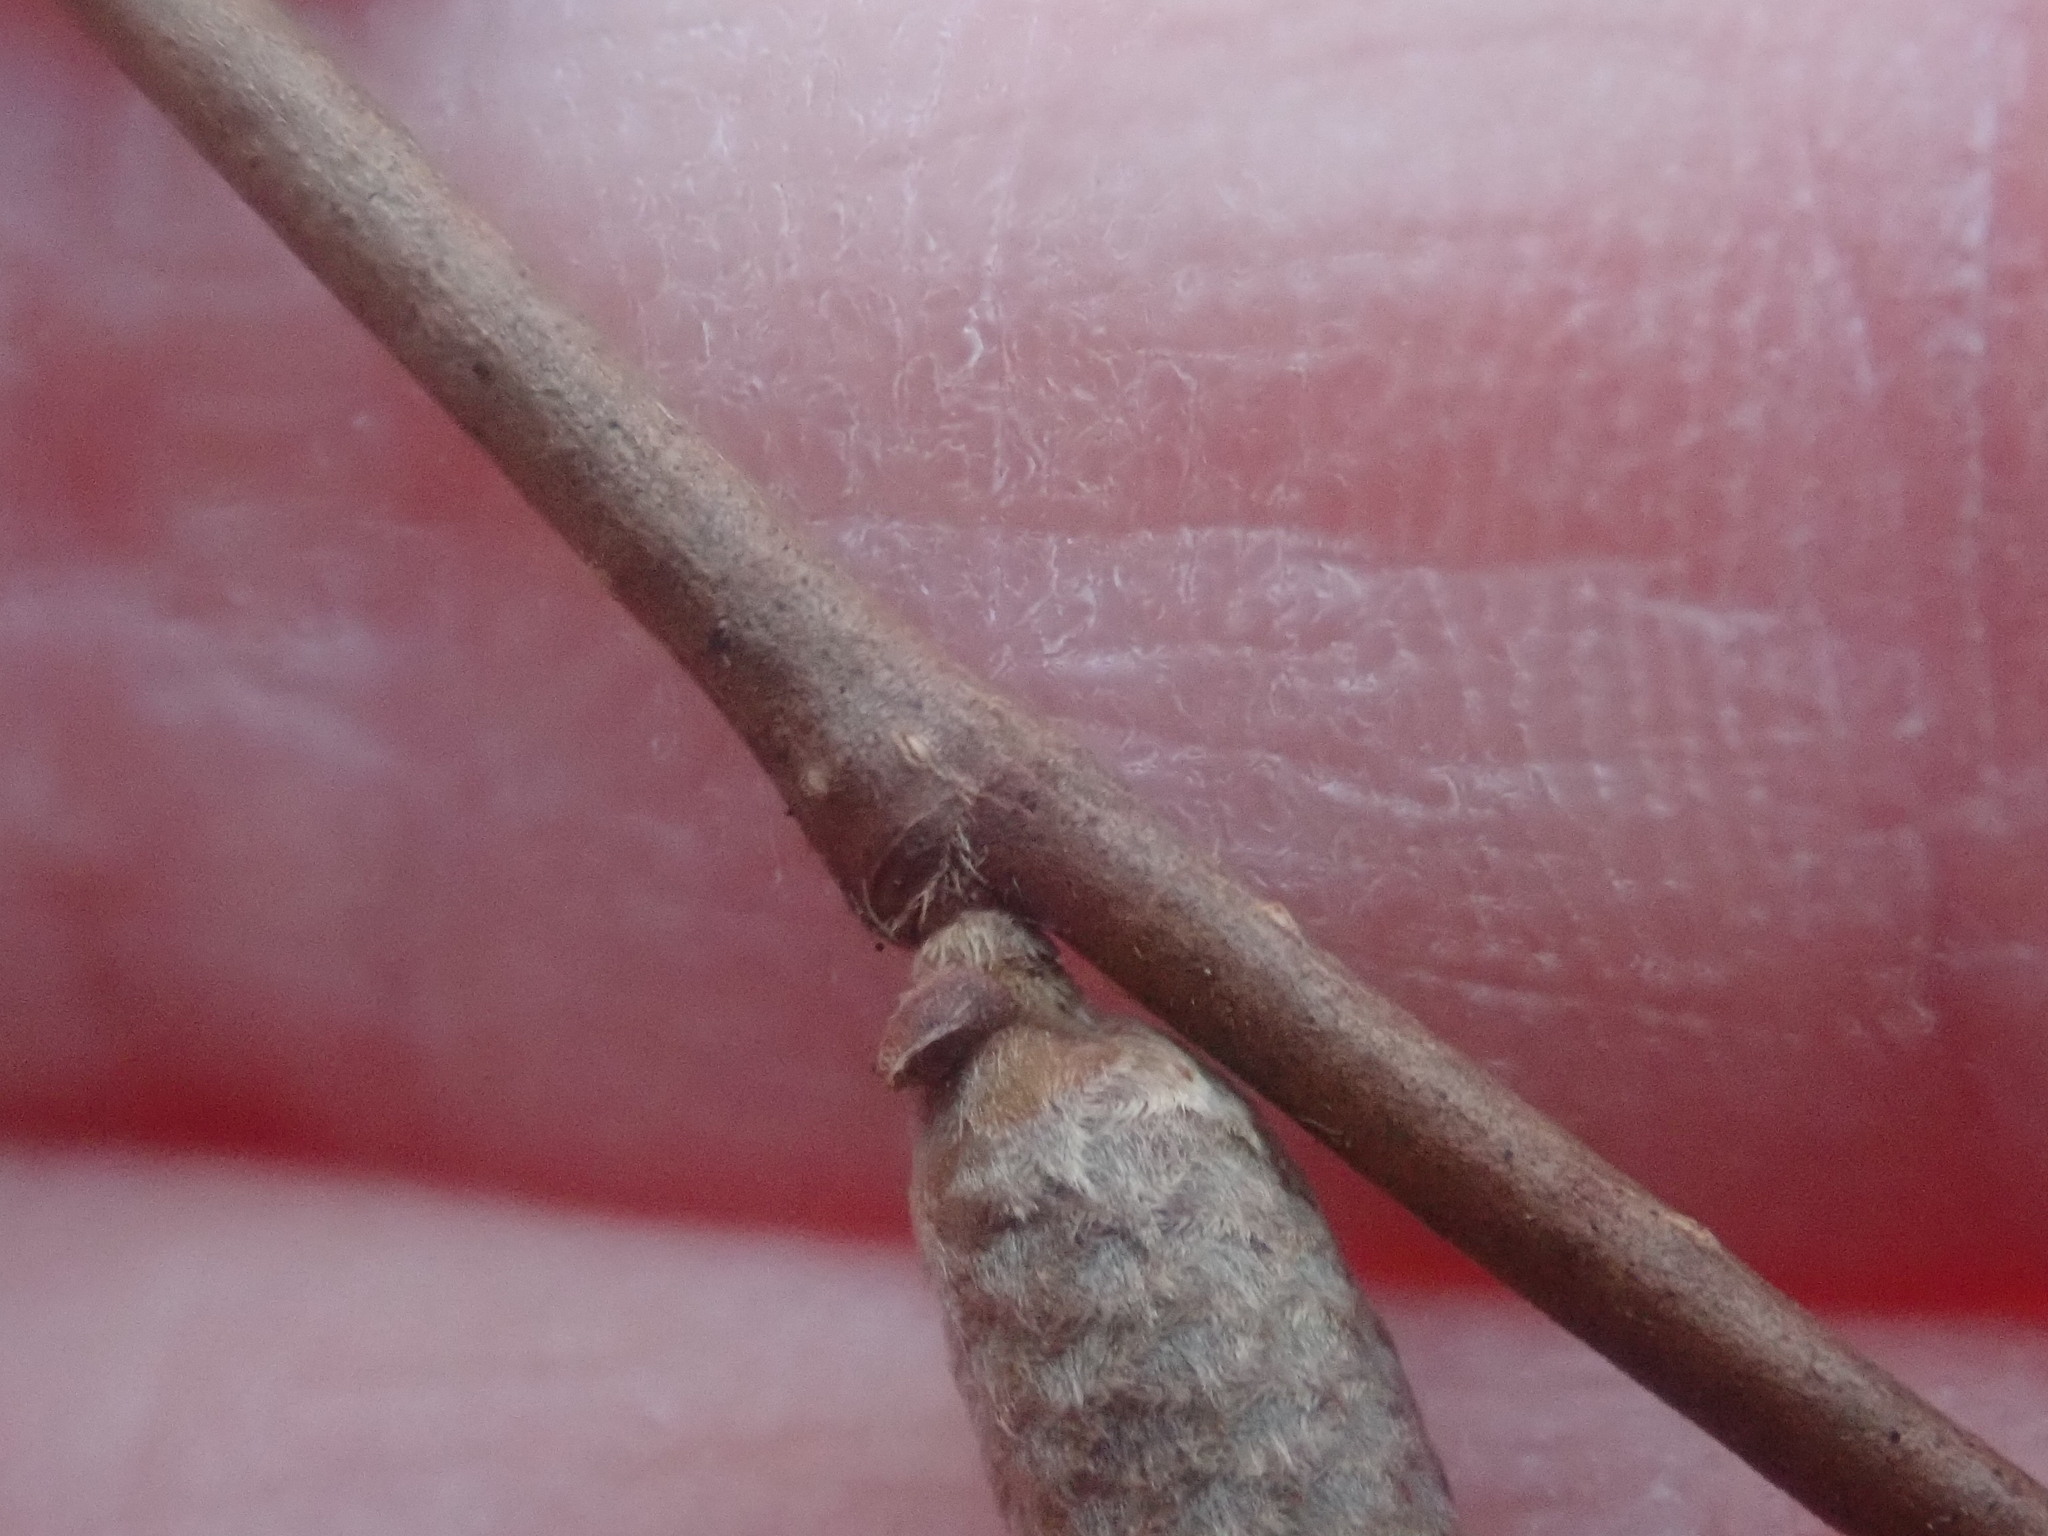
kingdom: Plantae
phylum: Tracheophyta
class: Magnoliopsida
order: Fagales
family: Betulaceae
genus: Corylus
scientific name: Corylus cornuta
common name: Beaked hazel
